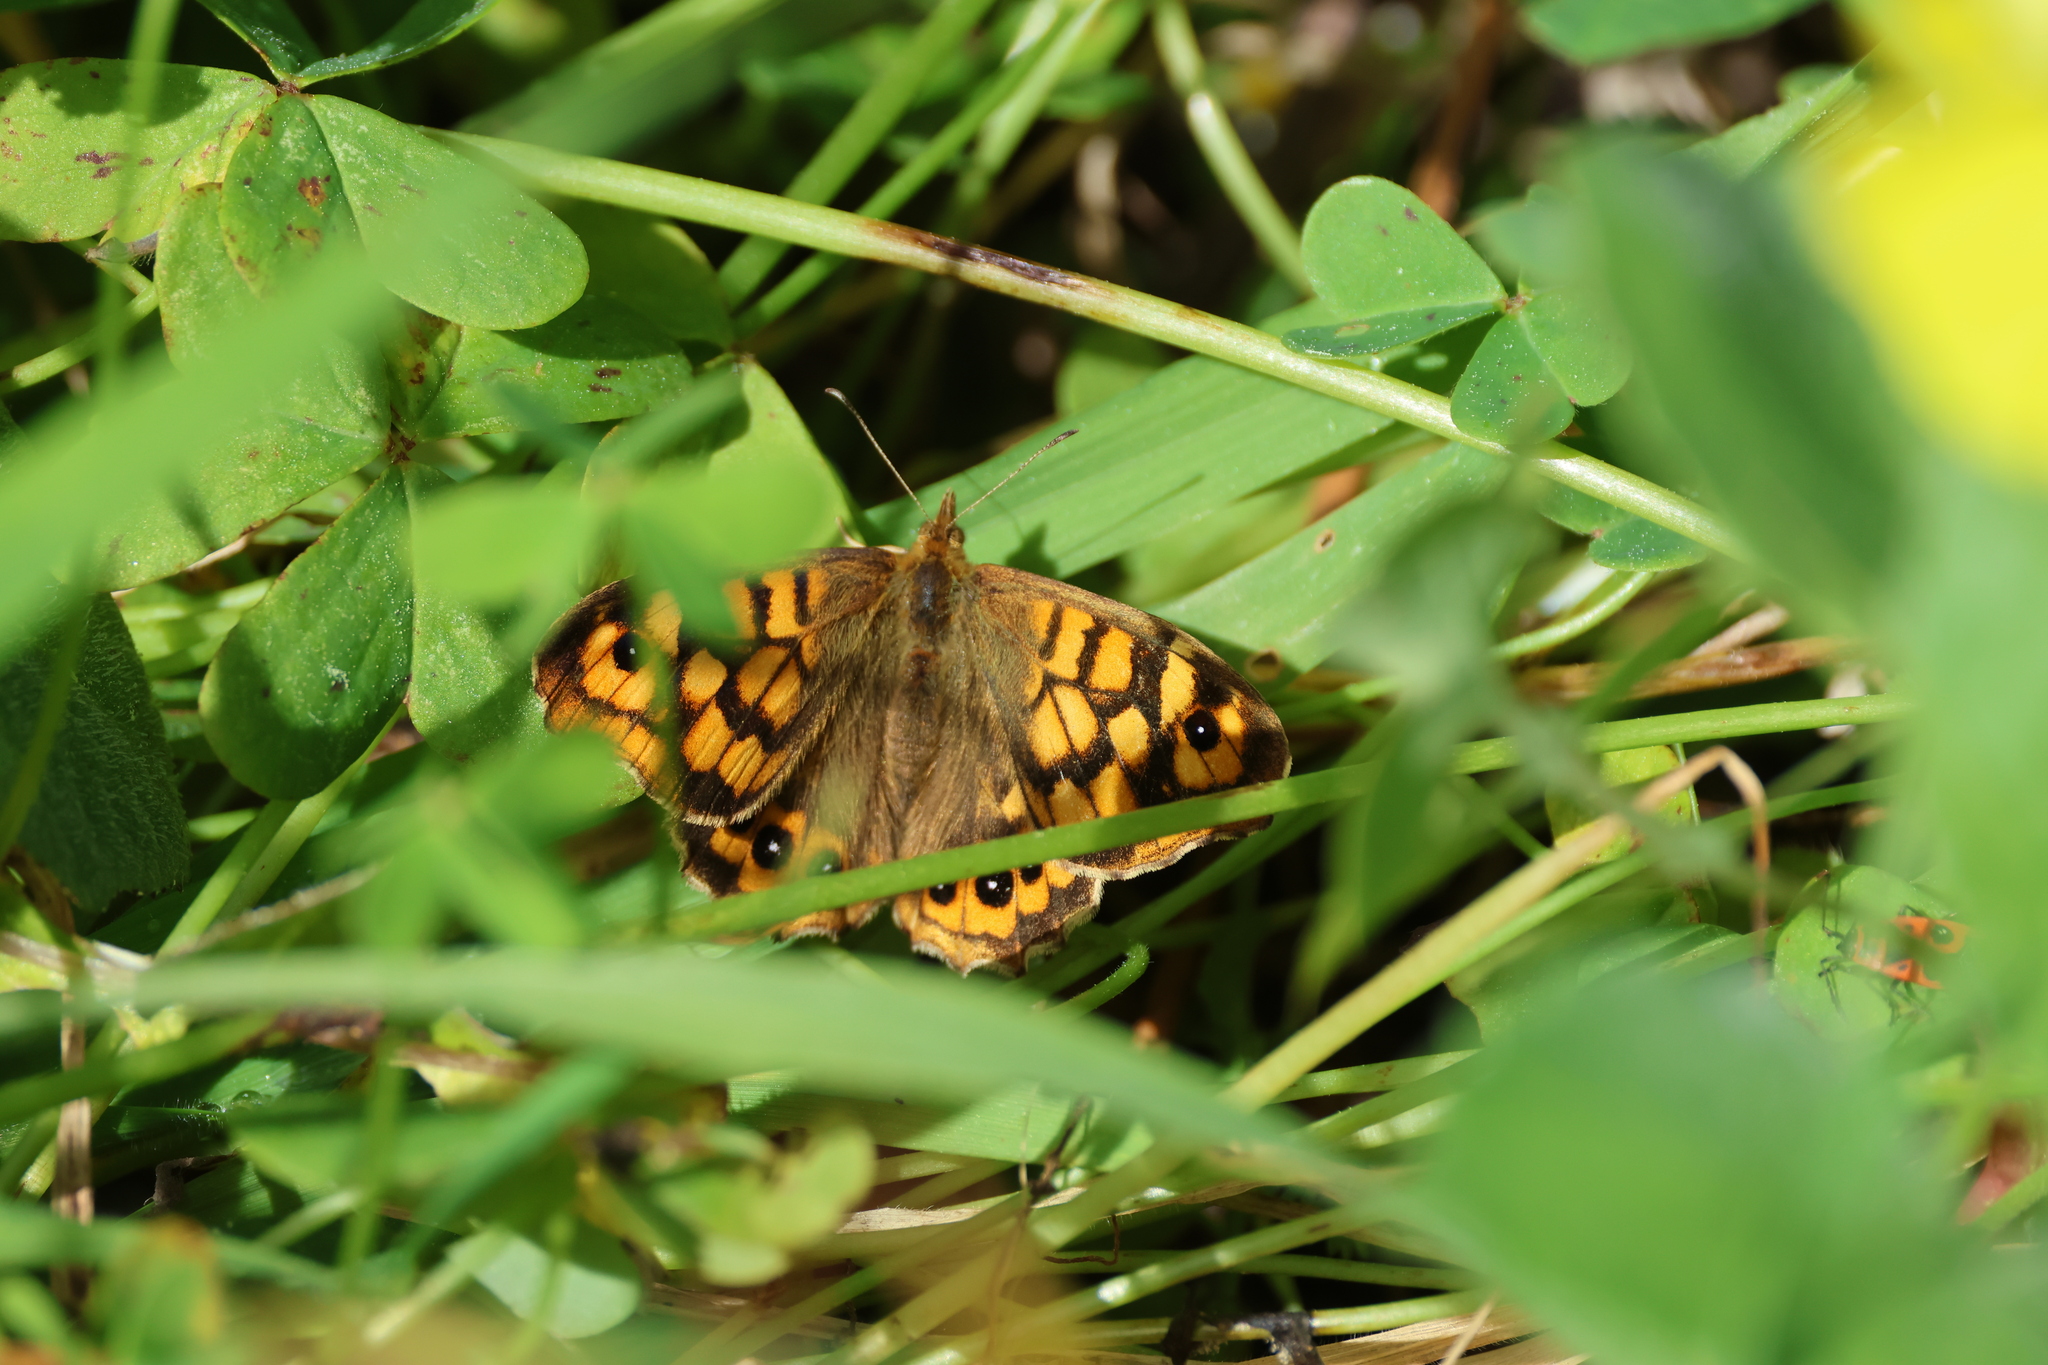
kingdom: Animalia
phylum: Arthropoda
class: Insecta
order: Lepidoptera
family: Nymphalidae
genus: Pararge
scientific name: Pararge aegeria
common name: Speckled wood
